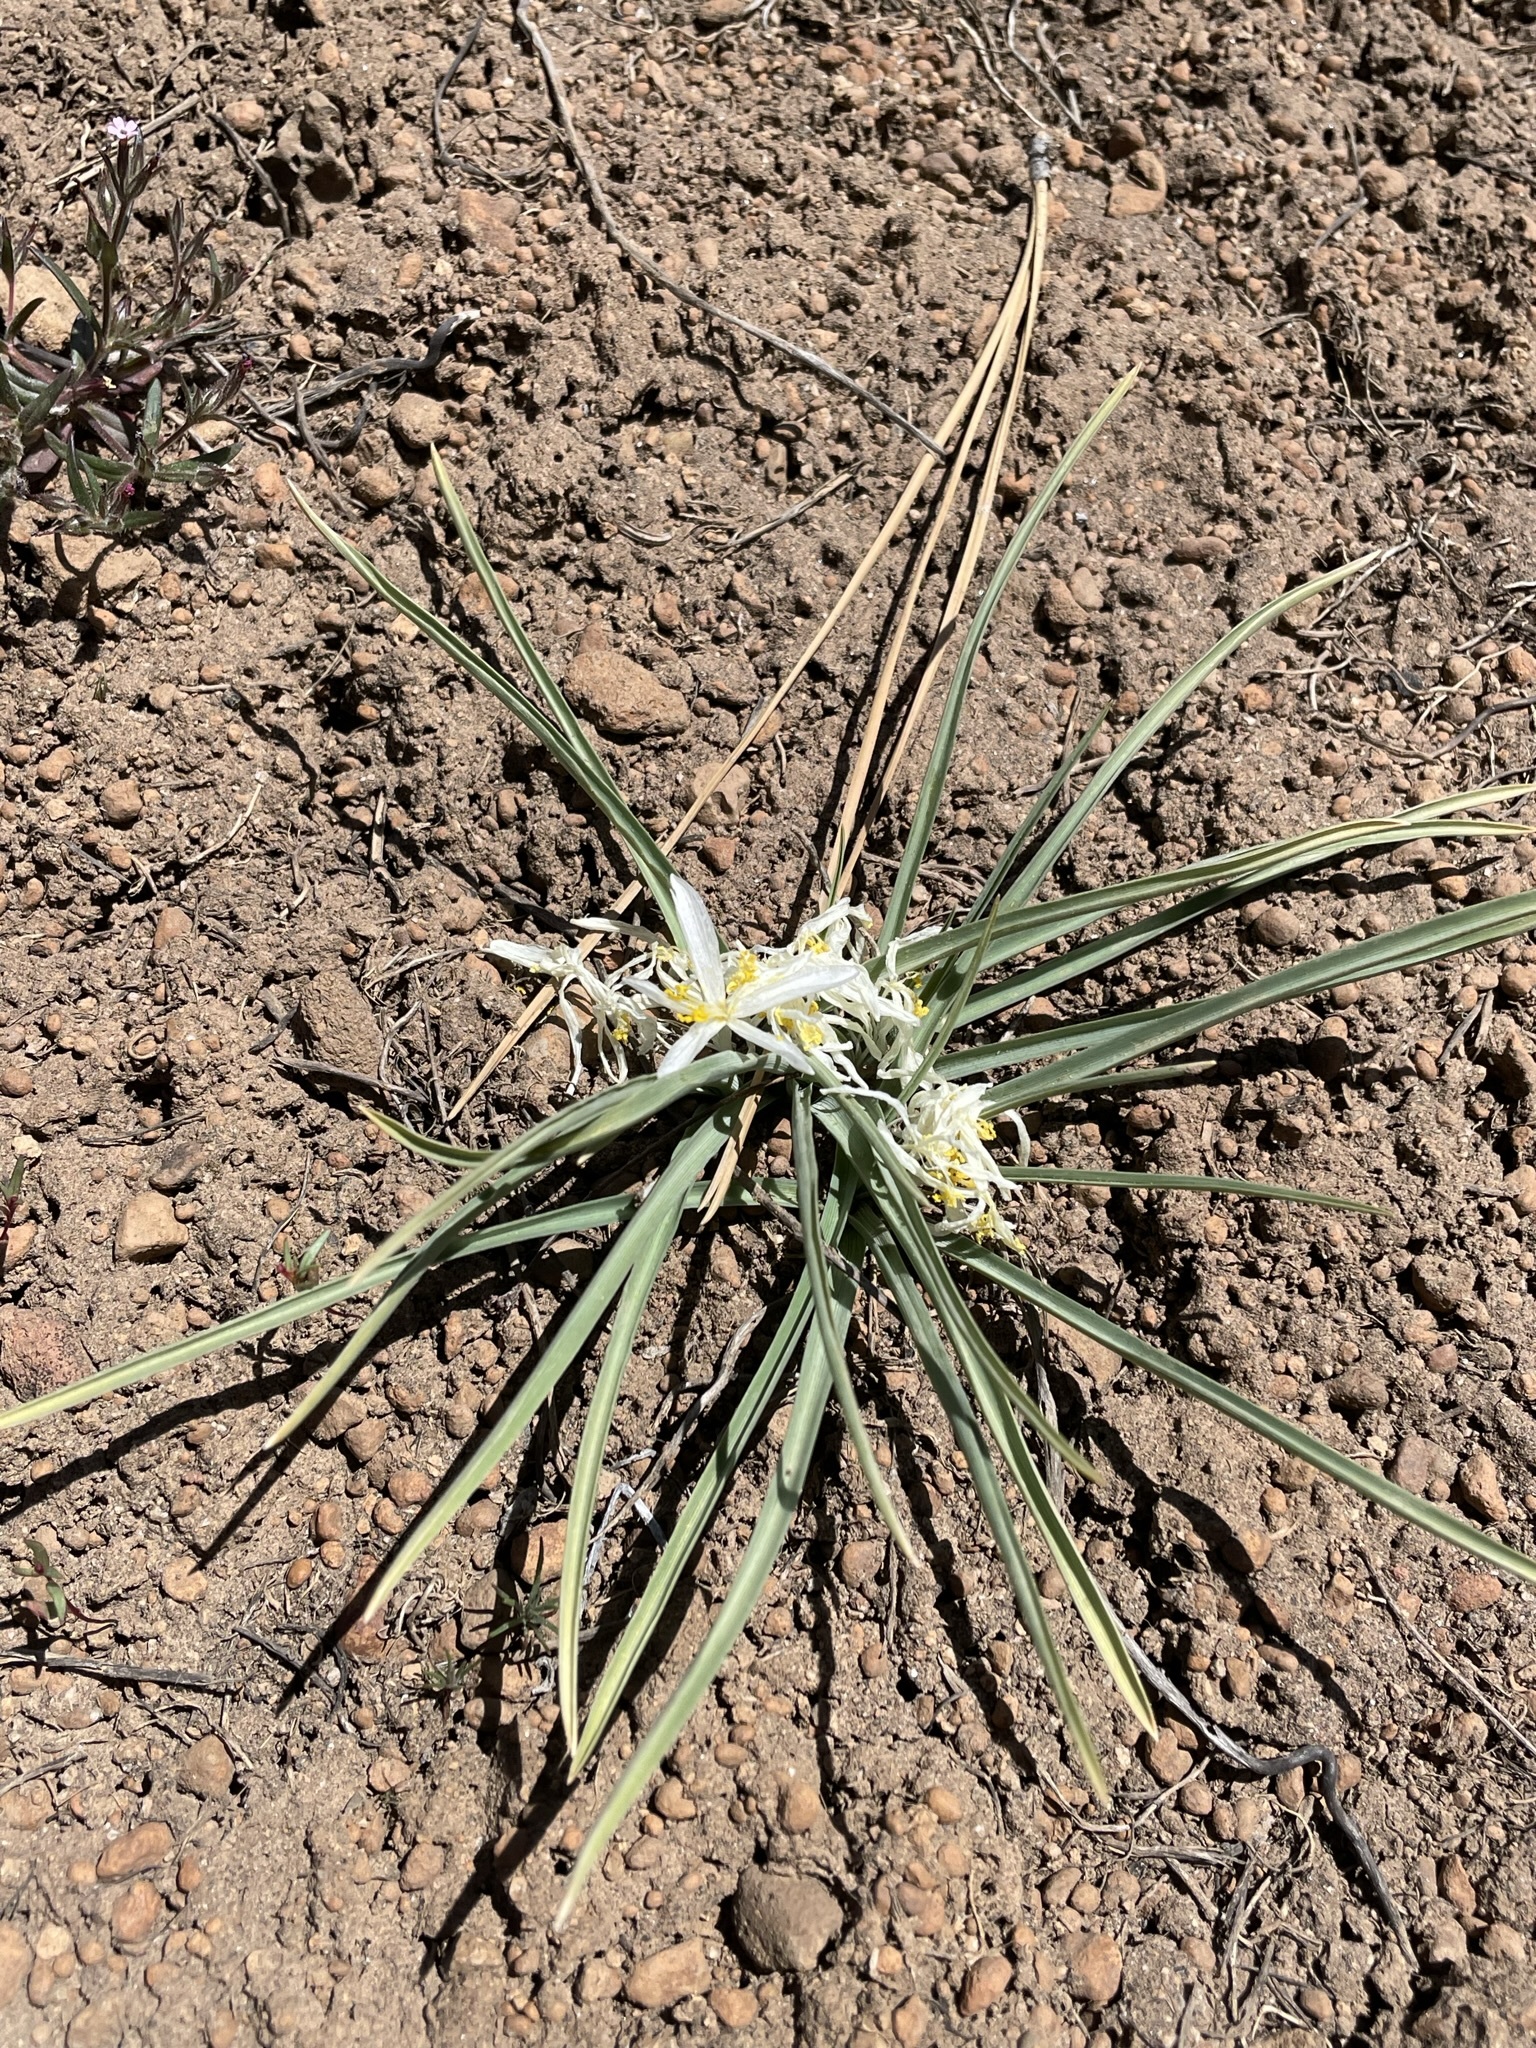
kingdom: Plantae
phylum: Tracheophyta
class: Liliopsida
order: Asparagales
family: Asparagaceae
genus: Leucocrinum
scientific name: Leucocrinum montanum
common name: Mountain-lily
